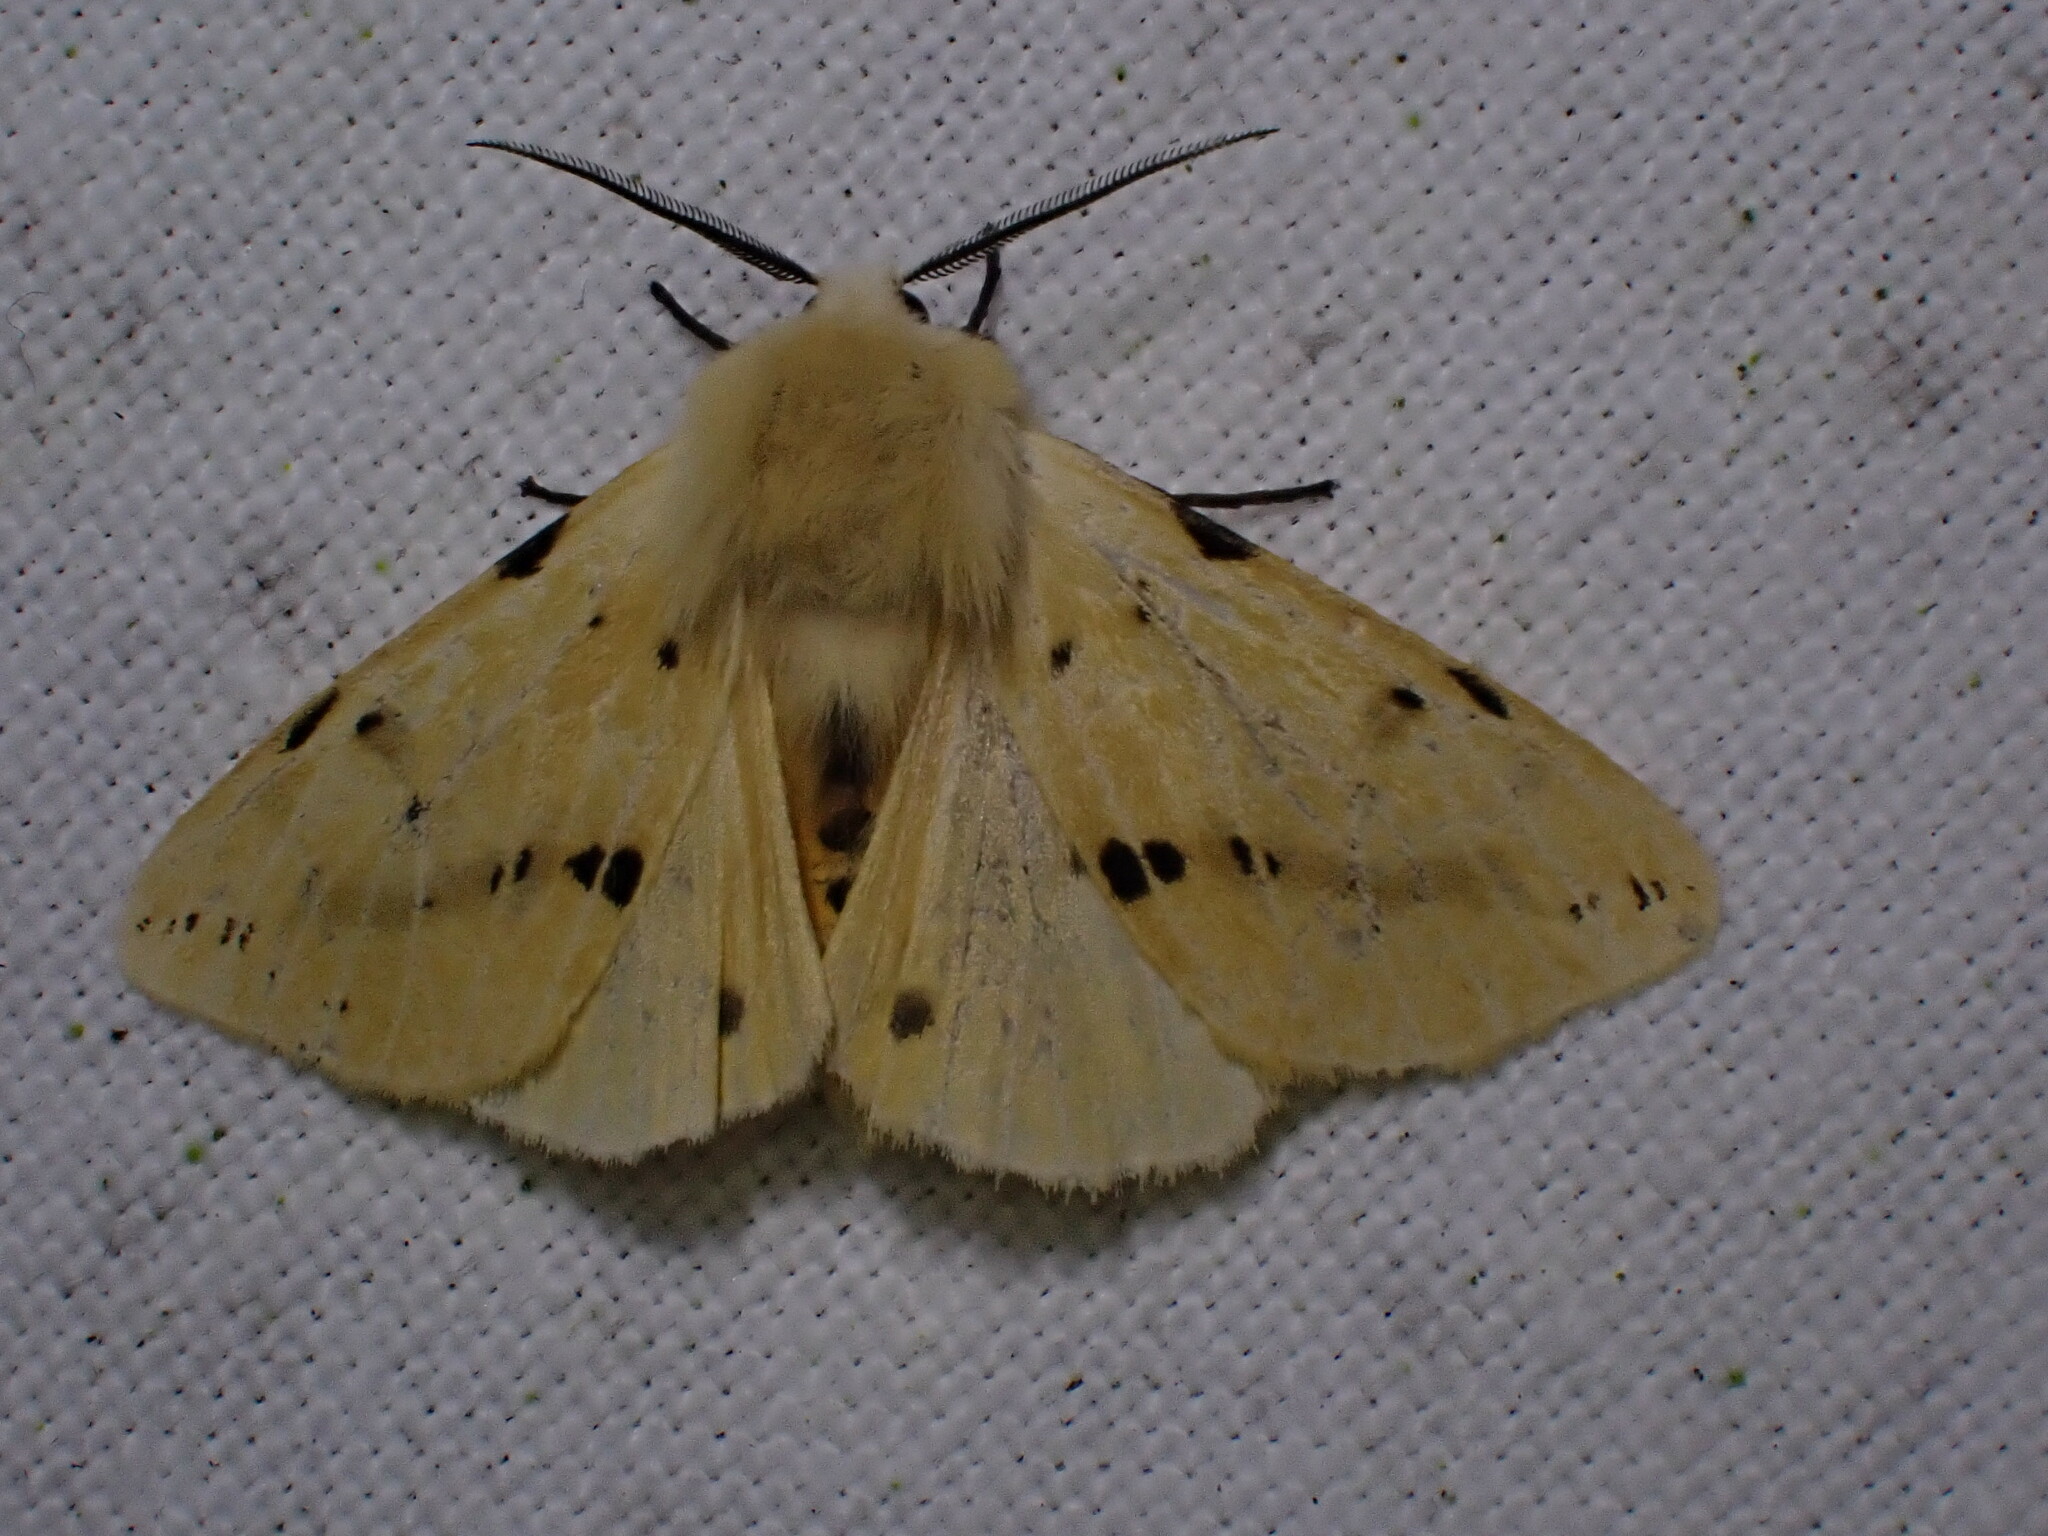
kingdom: Animalia
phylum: Arthropoda
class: Insecta
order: Lepidoptera
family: Erebidae
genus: Spilarctia
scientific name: Spilarctia lutea
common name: Buff ermine
